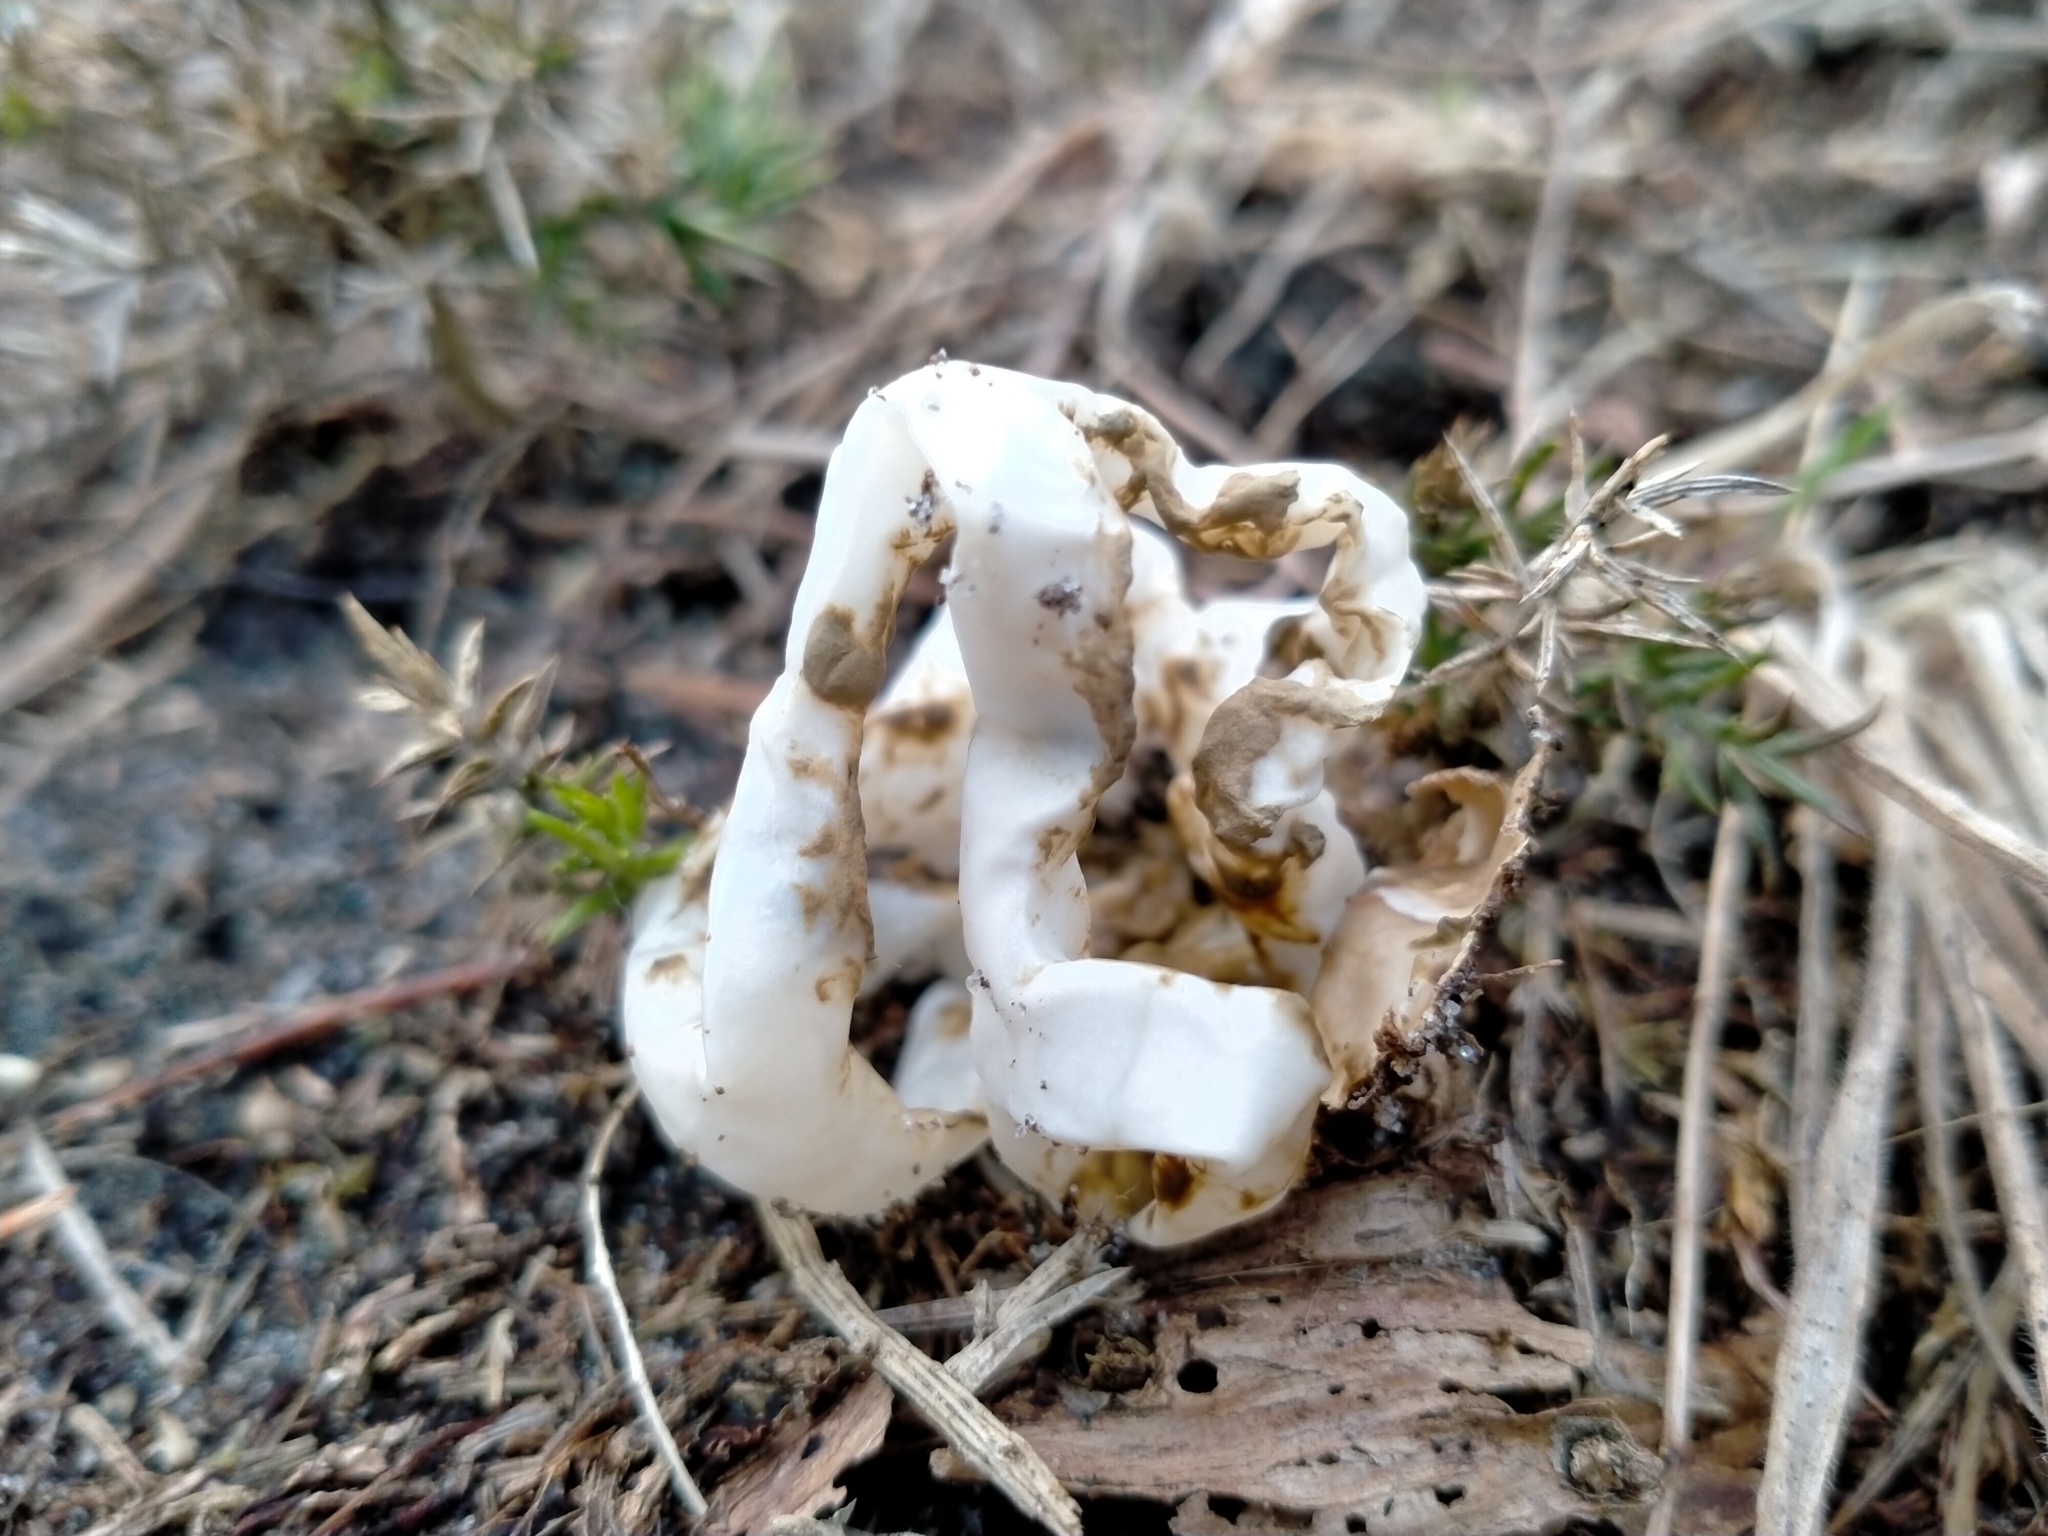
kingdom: Fungi
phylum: Basidiomycota
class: Agaricomycetes
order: Phallales
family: Phallaceae
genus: Ileodictyon
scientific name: Ileodictyon cibarium
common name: Basket fungus
